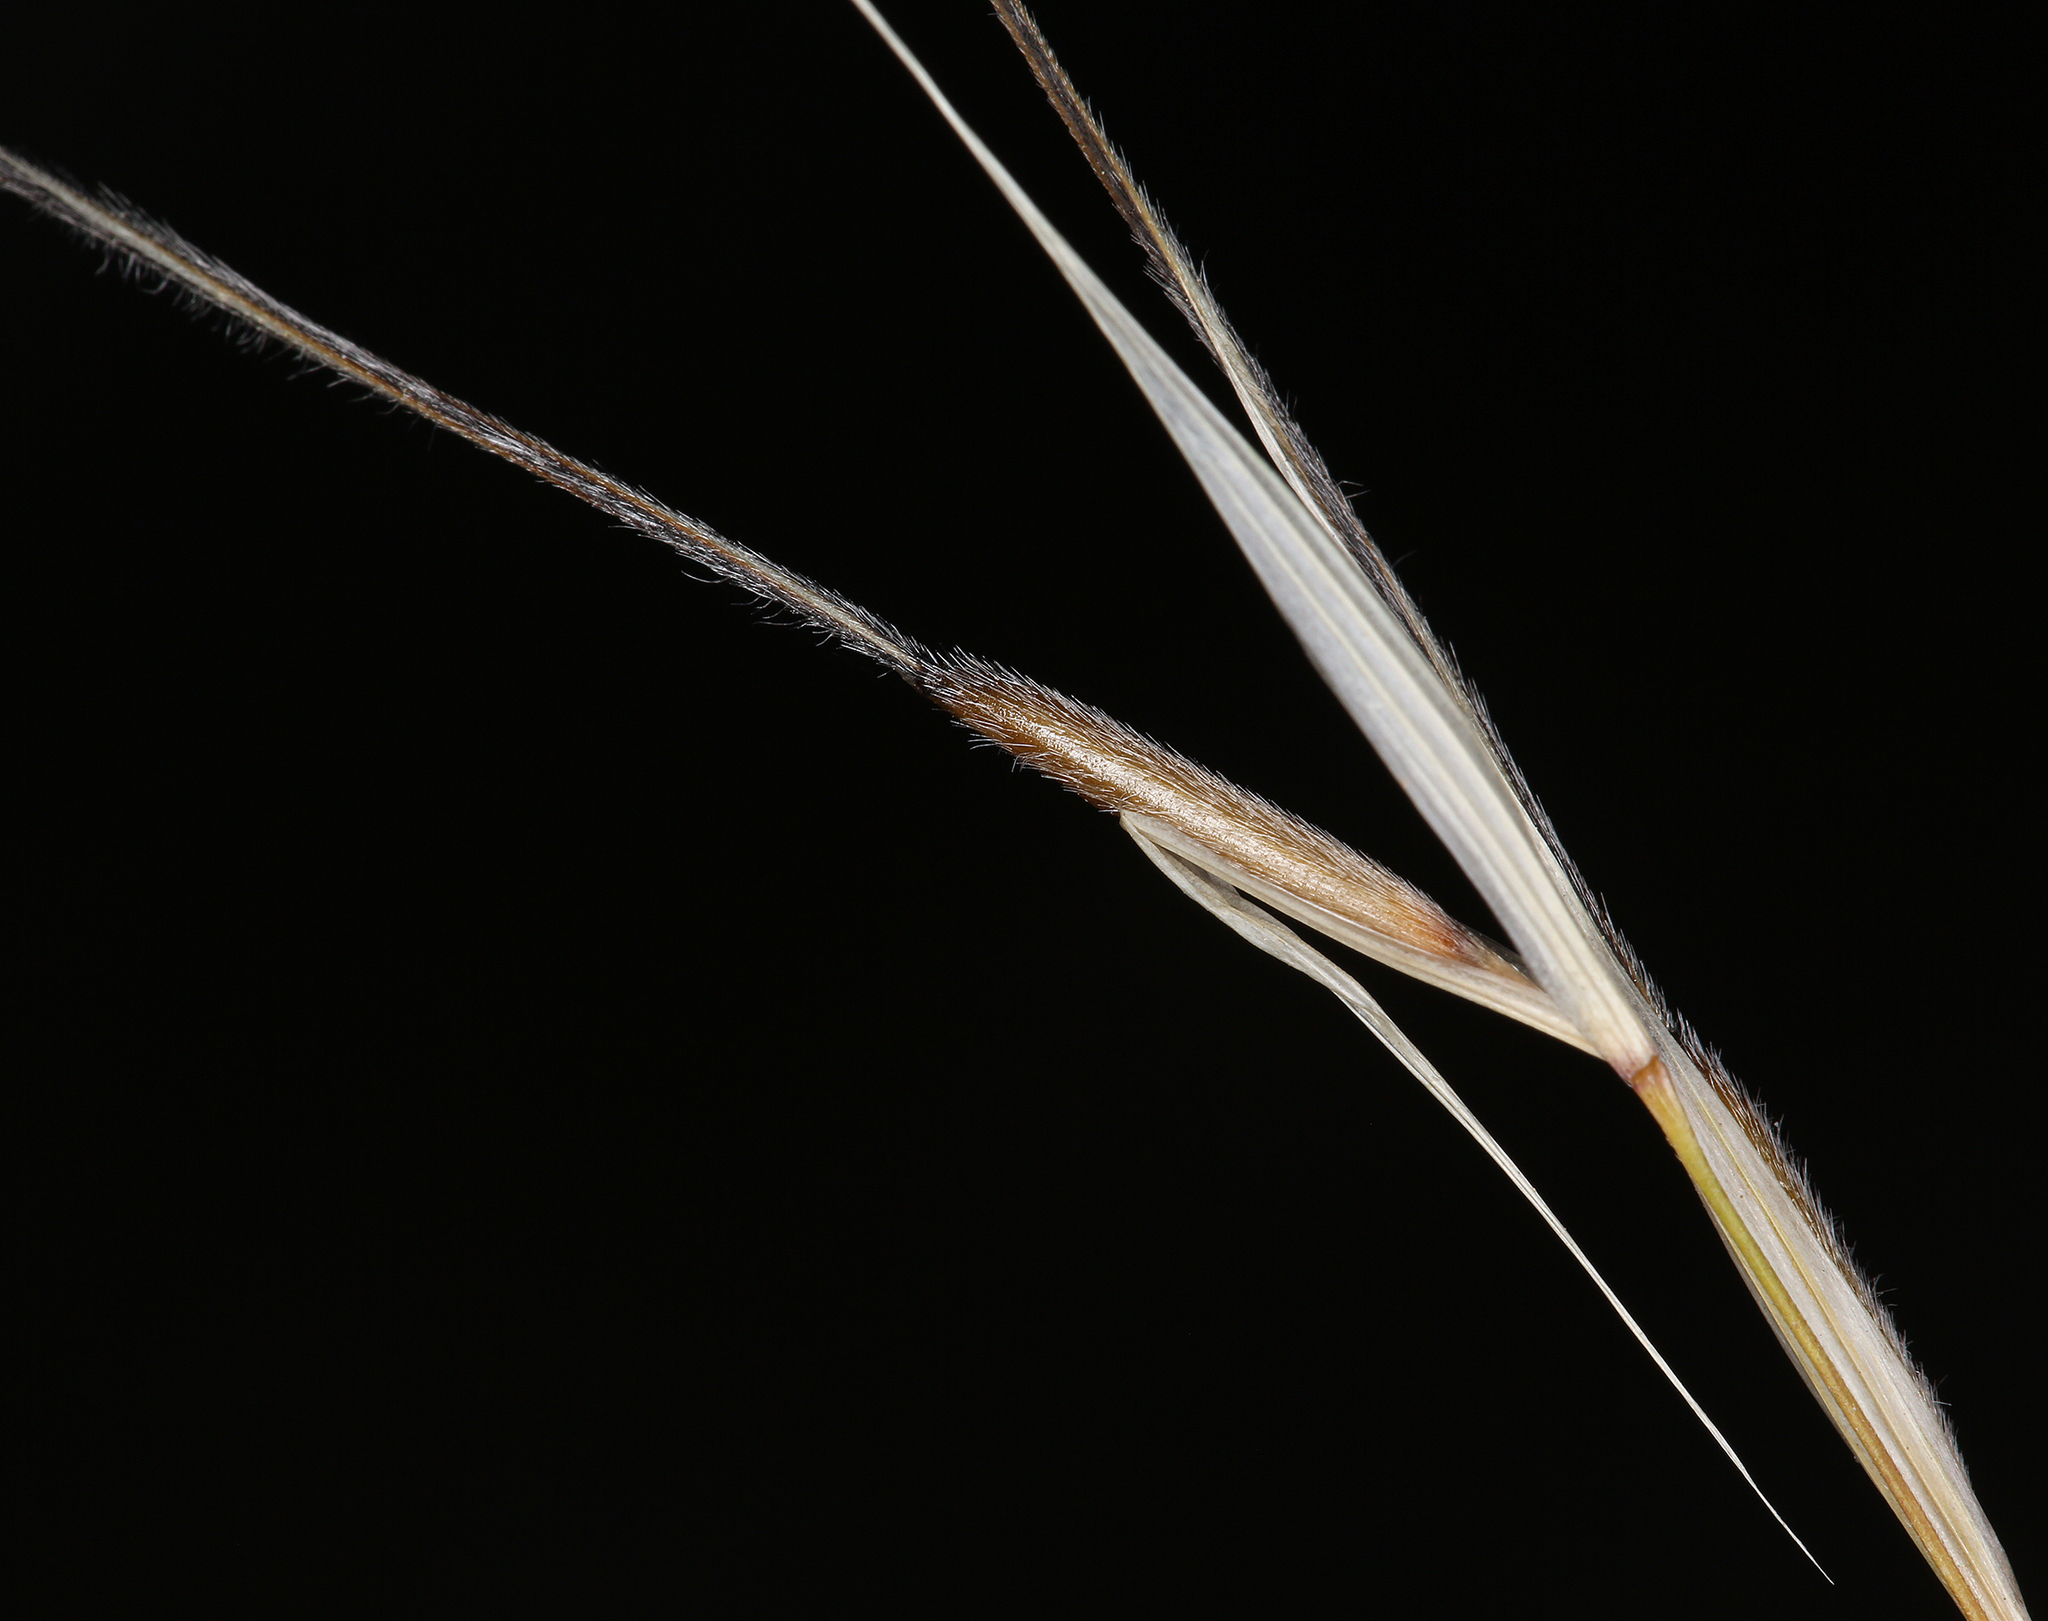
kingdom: Plantae
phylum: Tracheophyta
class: Liliopsida
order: Poales
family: Poaceae
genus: Hesperostipa
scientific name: Hesperostipa comata
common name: Needle-and-thread grass
